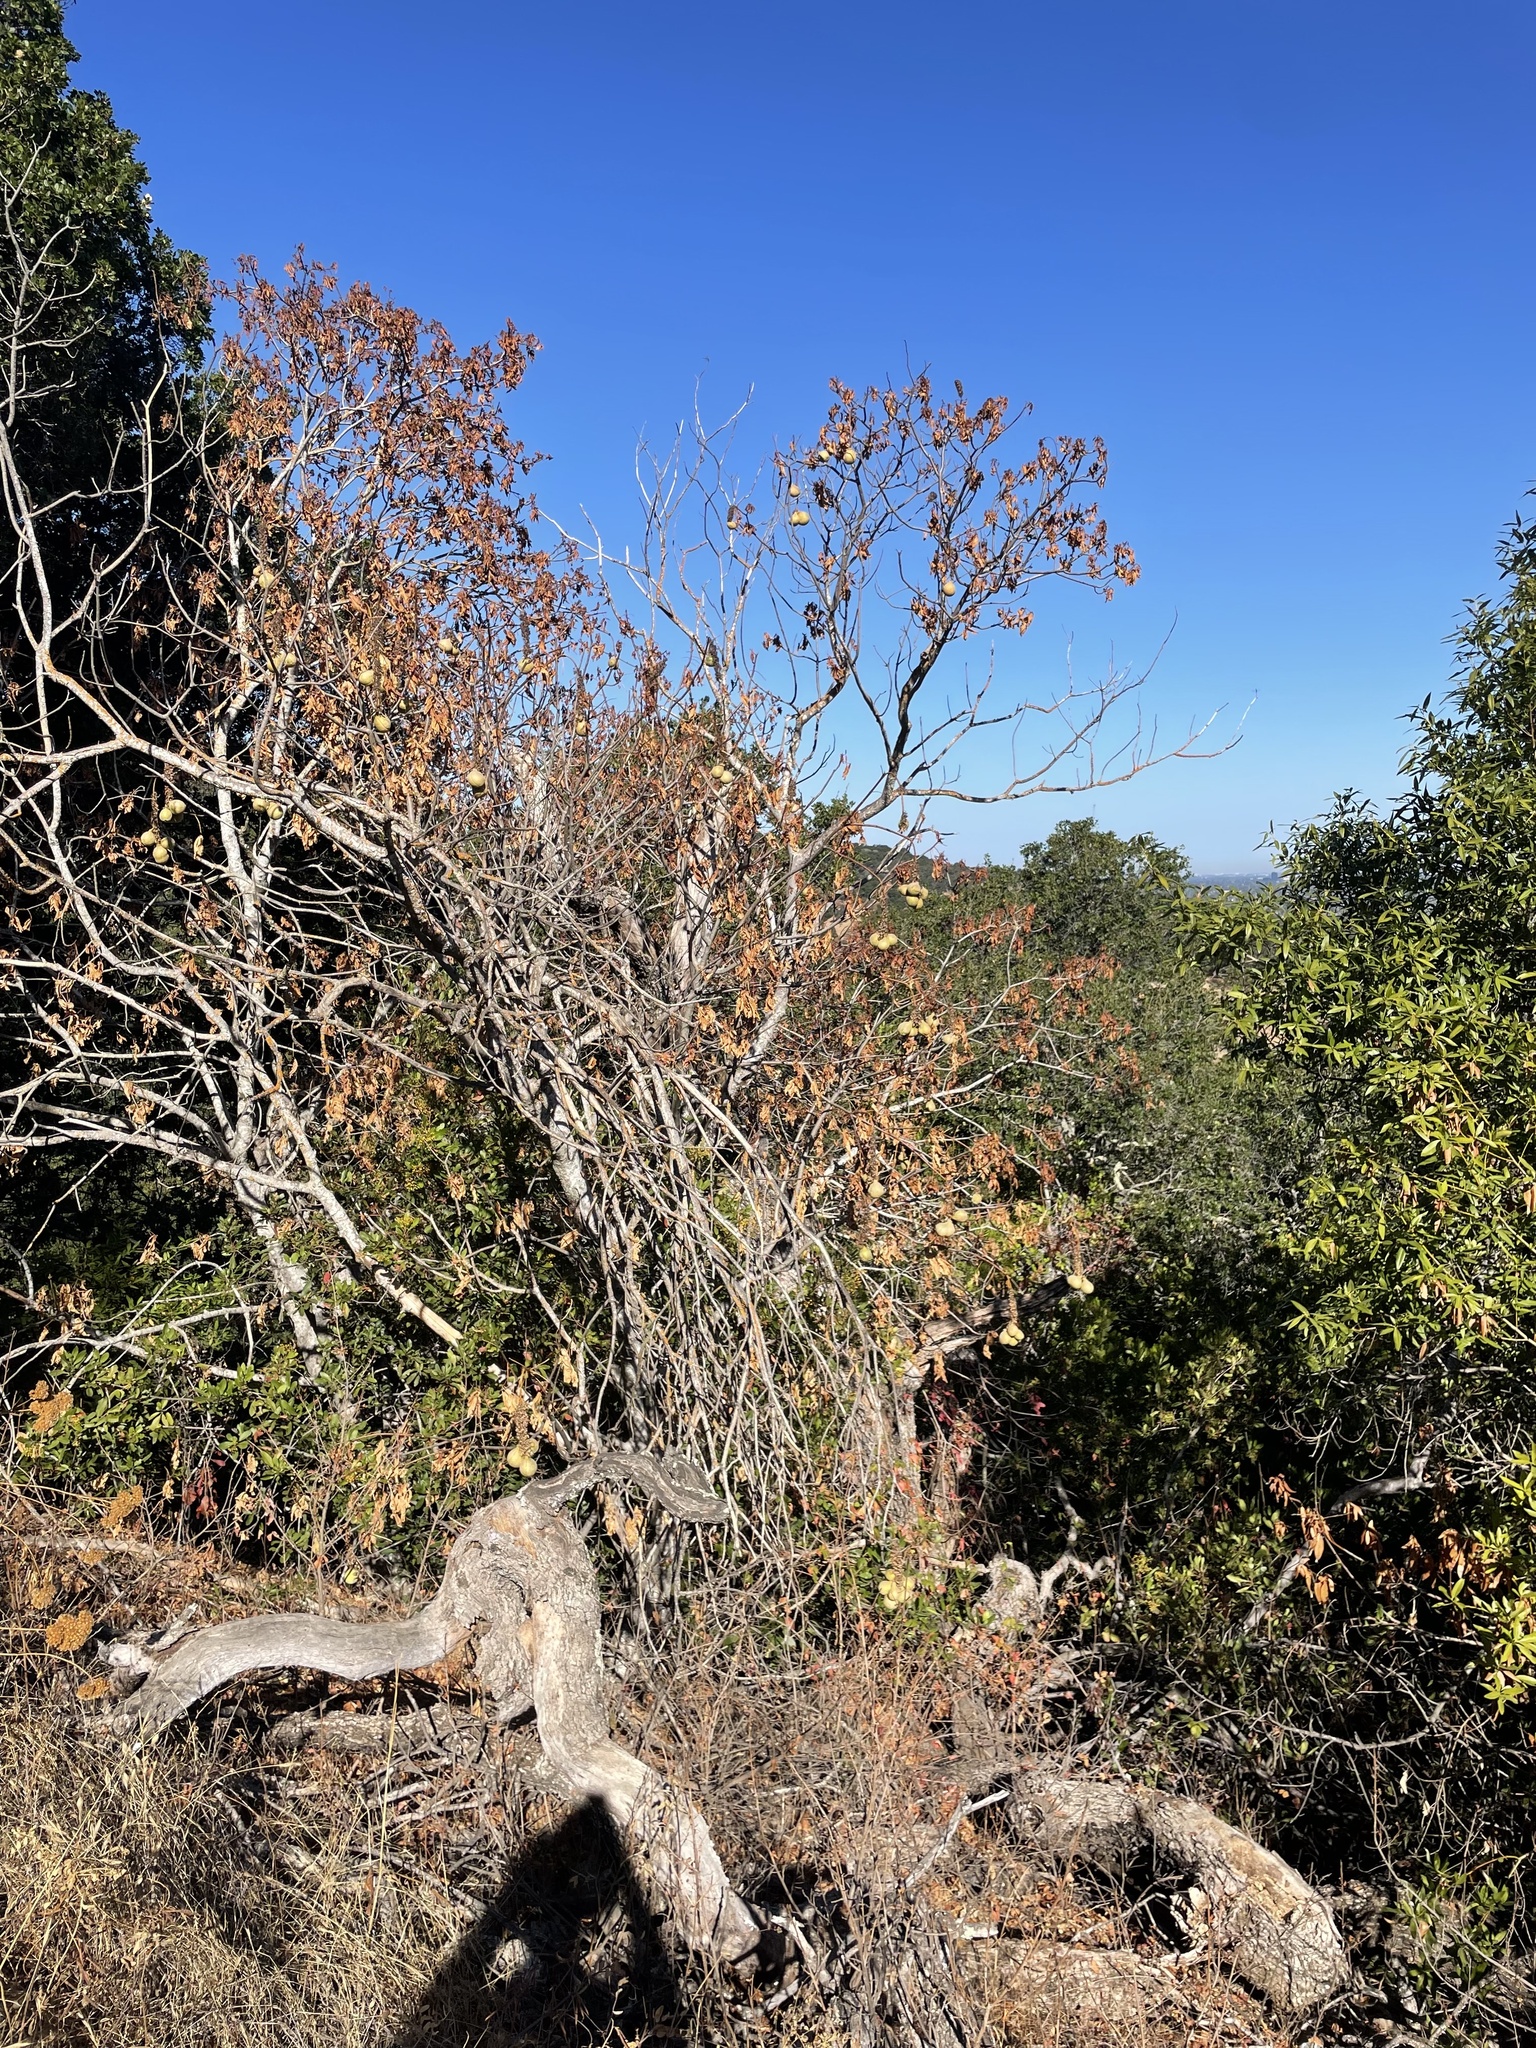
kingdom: Plantae
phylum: Tracheophyta
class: Magnoliopsida
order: Sapindales
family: Sapindaceae
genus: Aesculus
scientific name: Aesculus californica
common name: California buckeye
